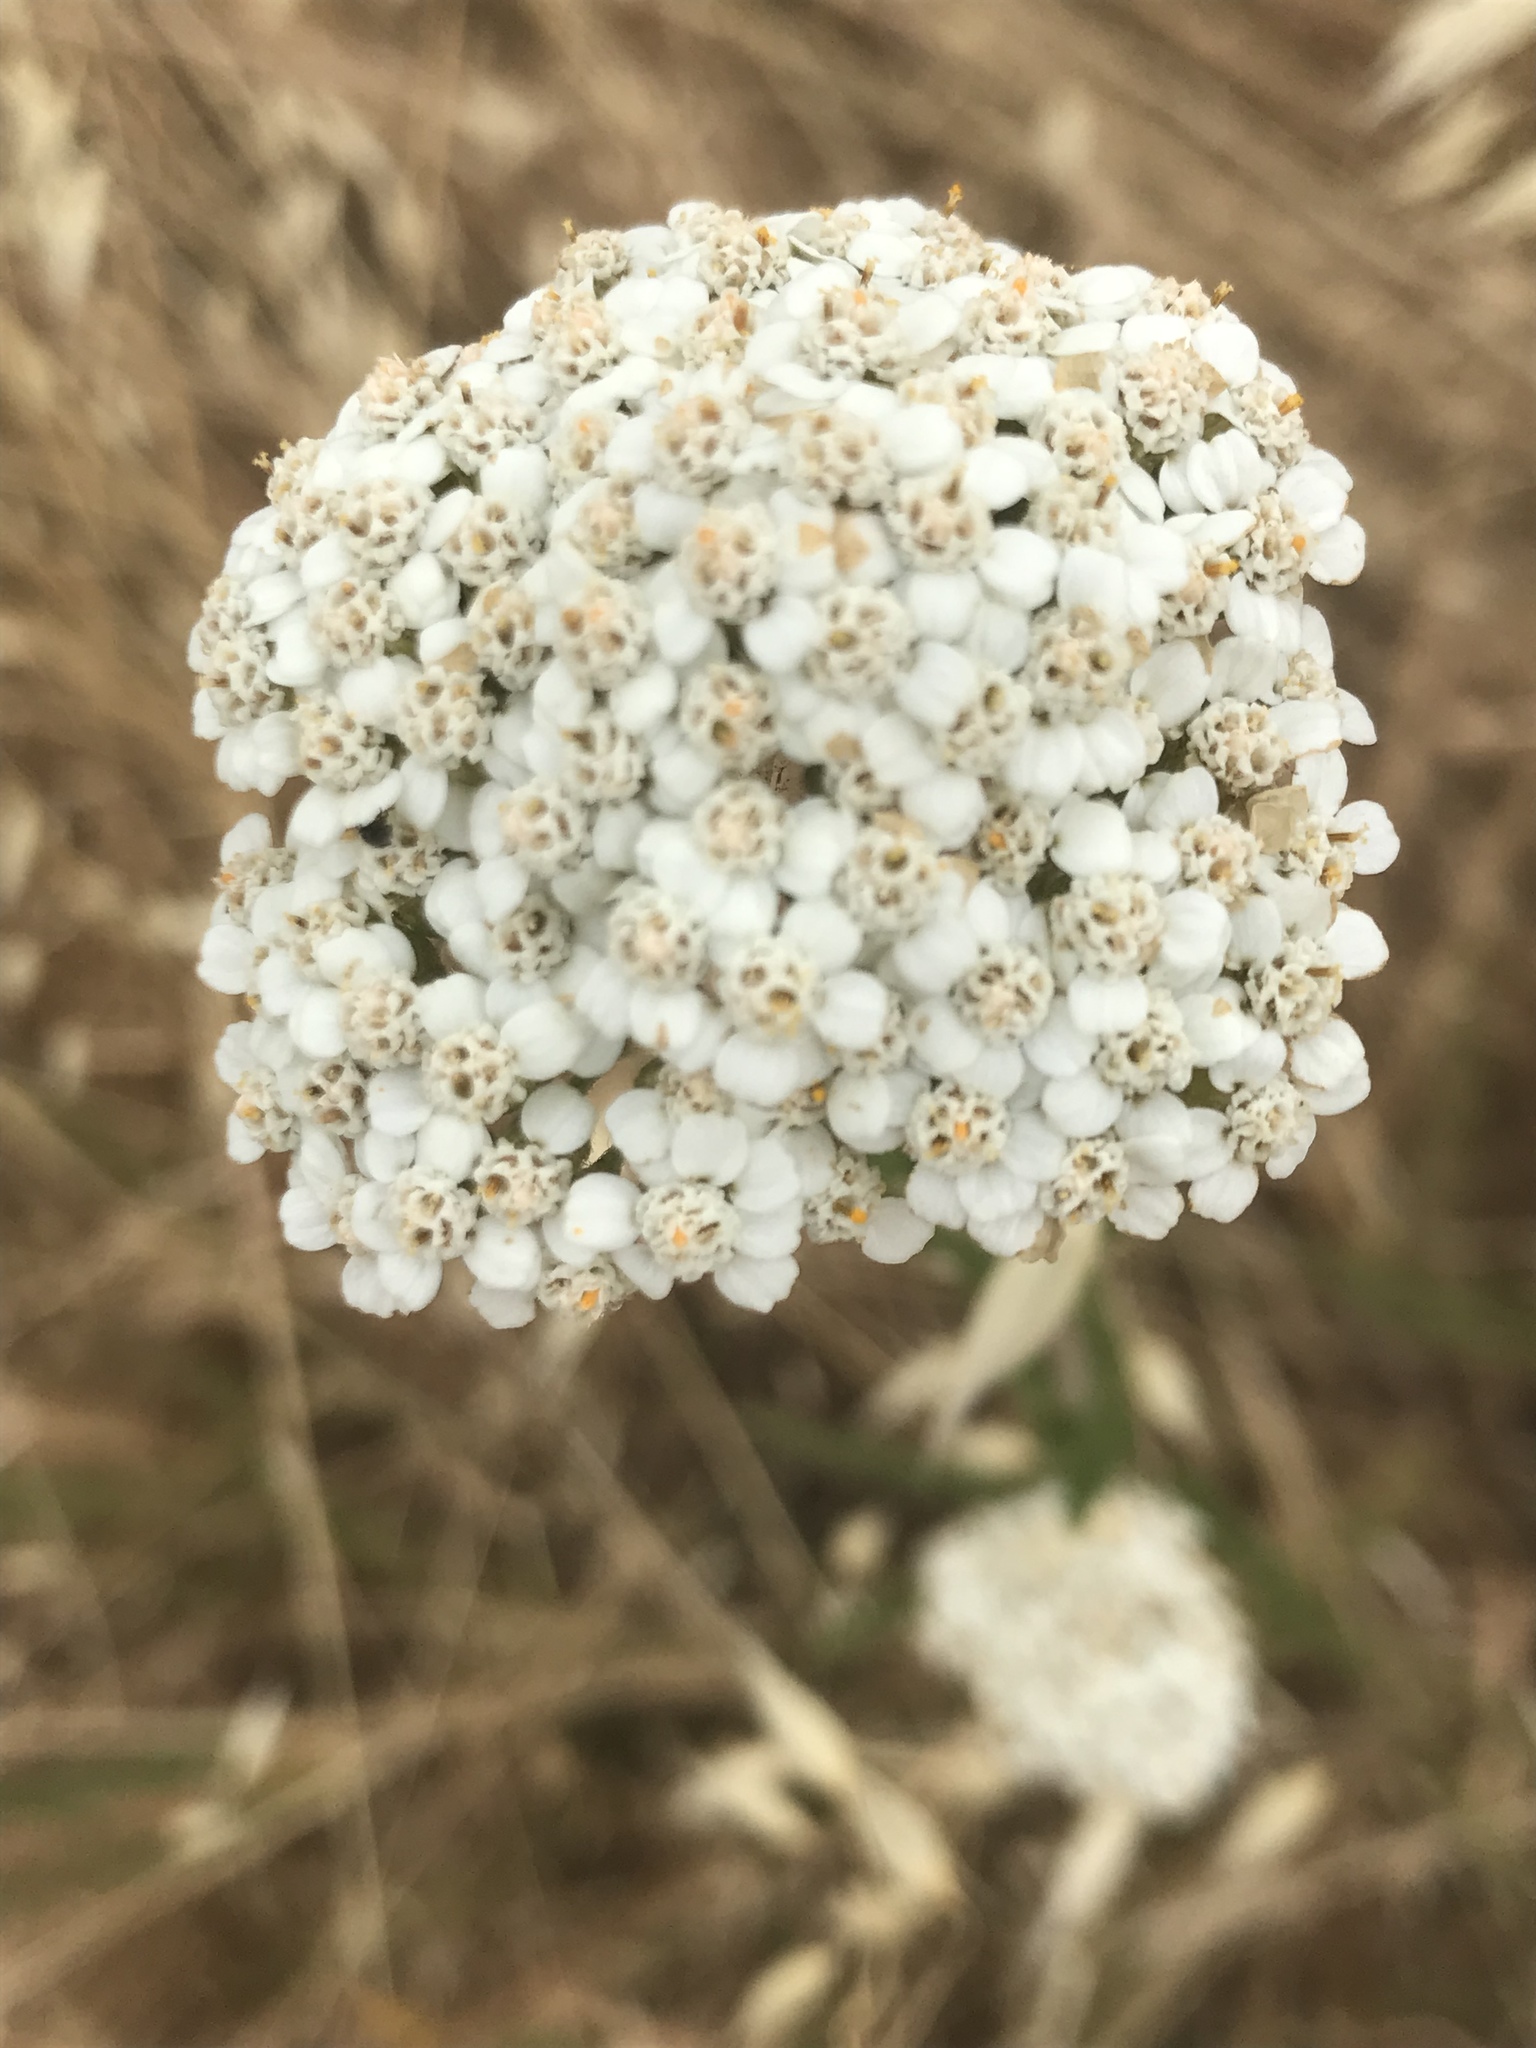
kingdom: Plantae
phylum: Tracheophyta
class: Magnoliopsida
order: Asterales
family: Asteraceae
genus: Achillea
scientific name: Achillea millefolium
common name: Yarrow
